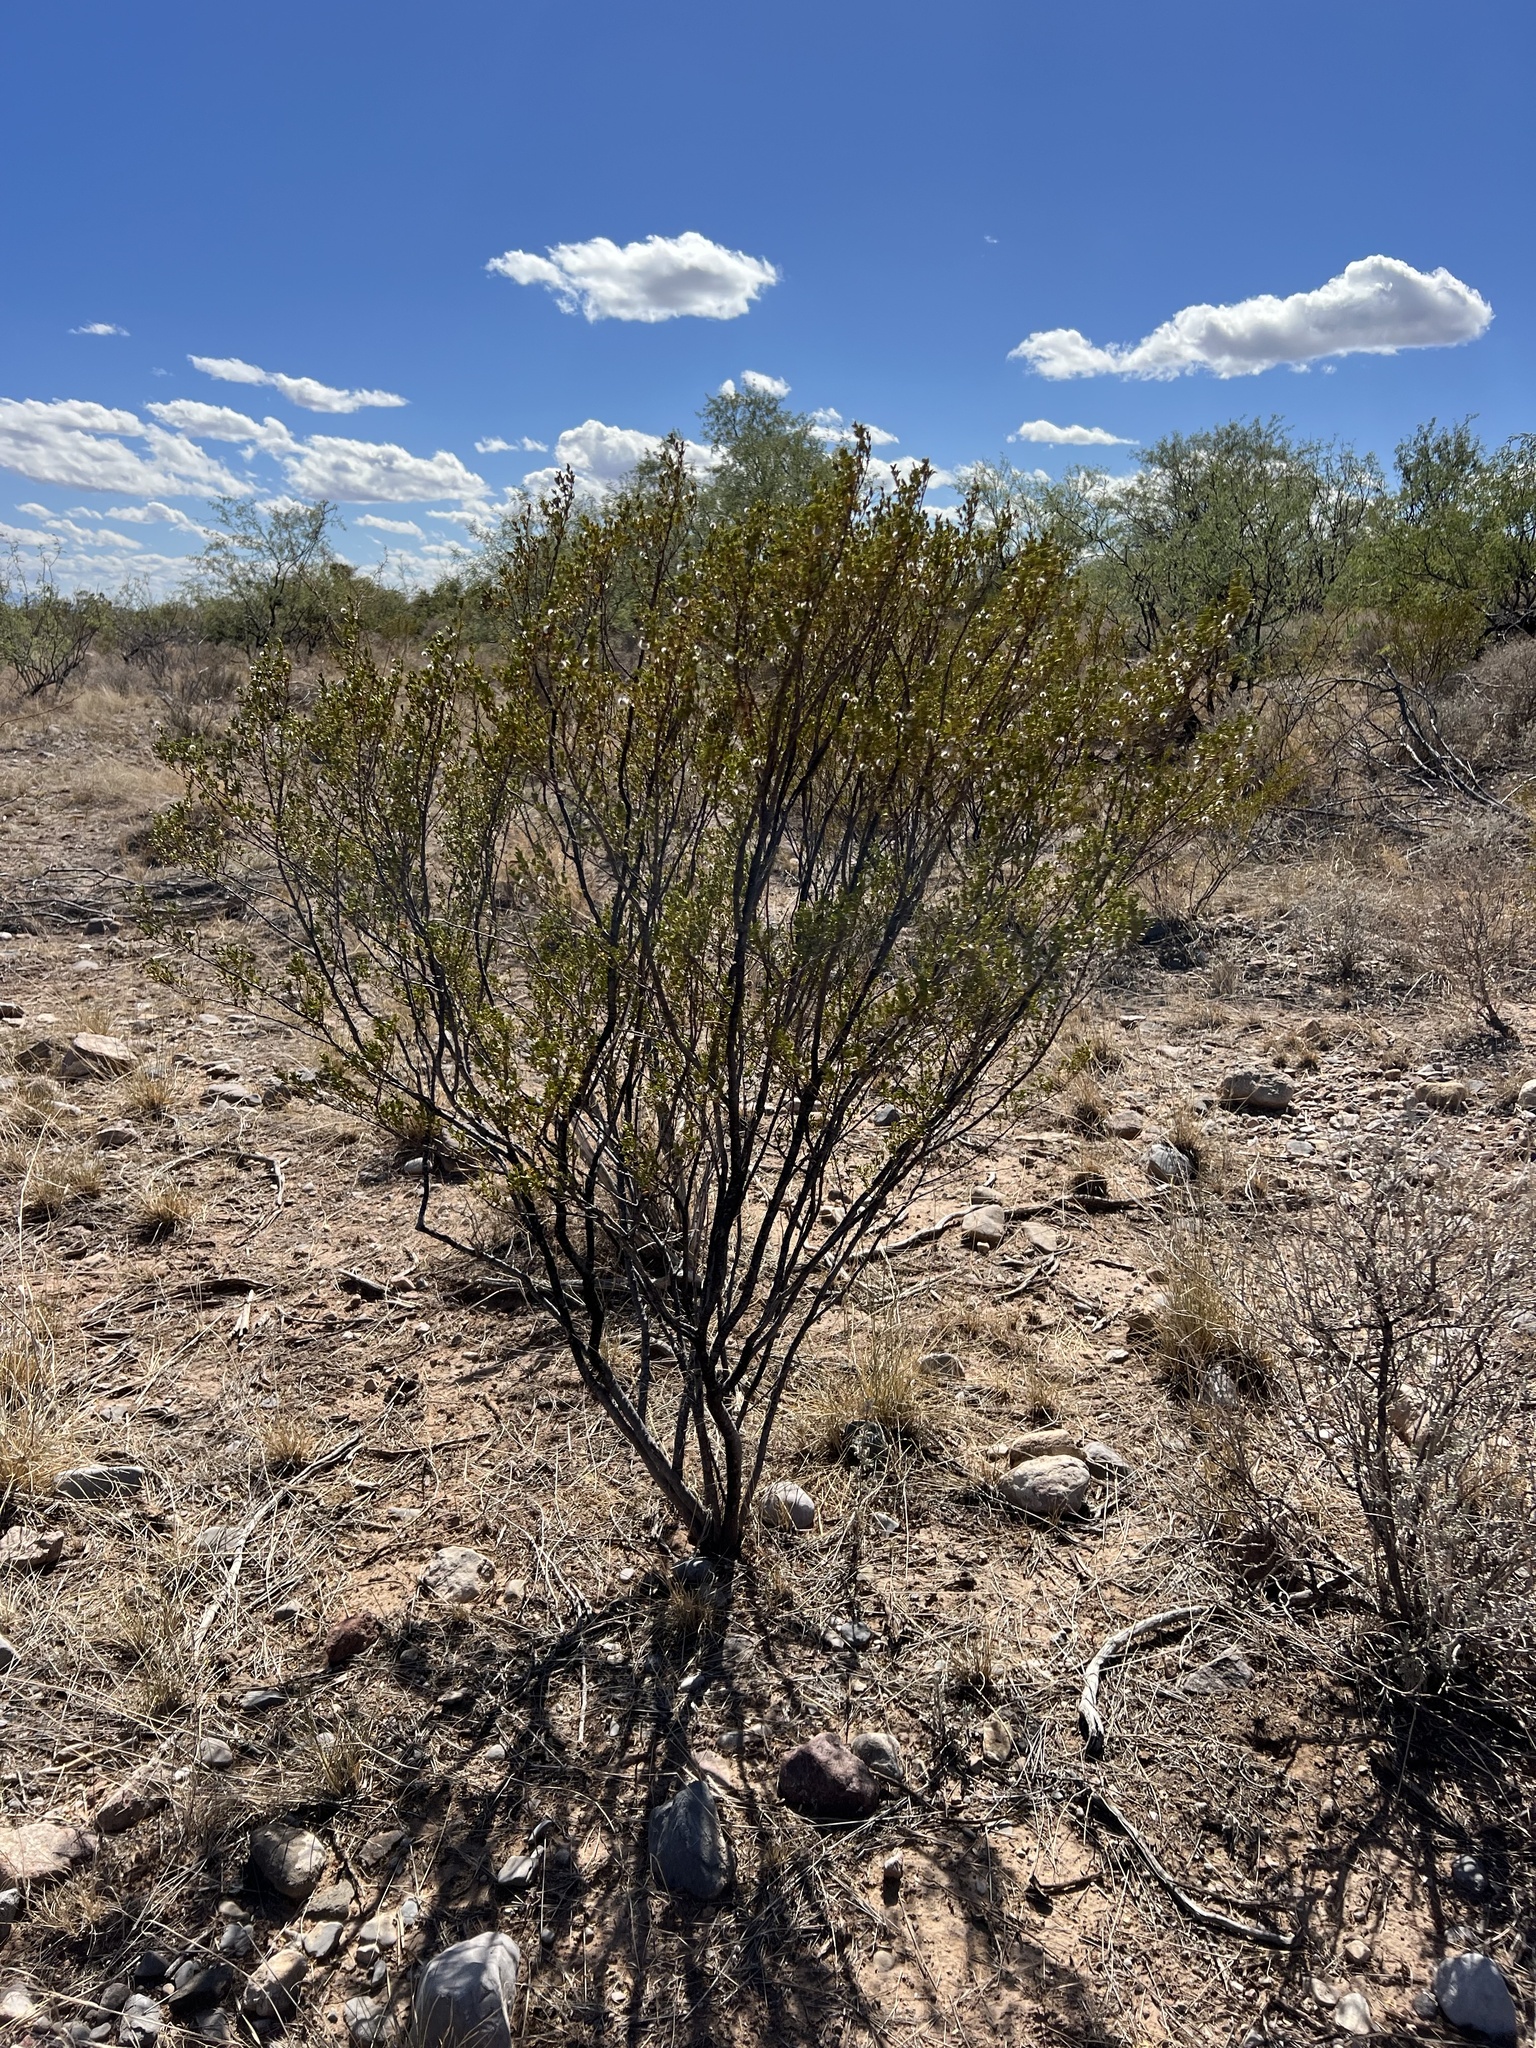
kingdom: Plantae
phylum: Tracheophyta
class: Magnoliopsida
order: Zygophyllales
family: Zygophyllaceae
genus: Larrea
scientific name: Larrea tridentata
